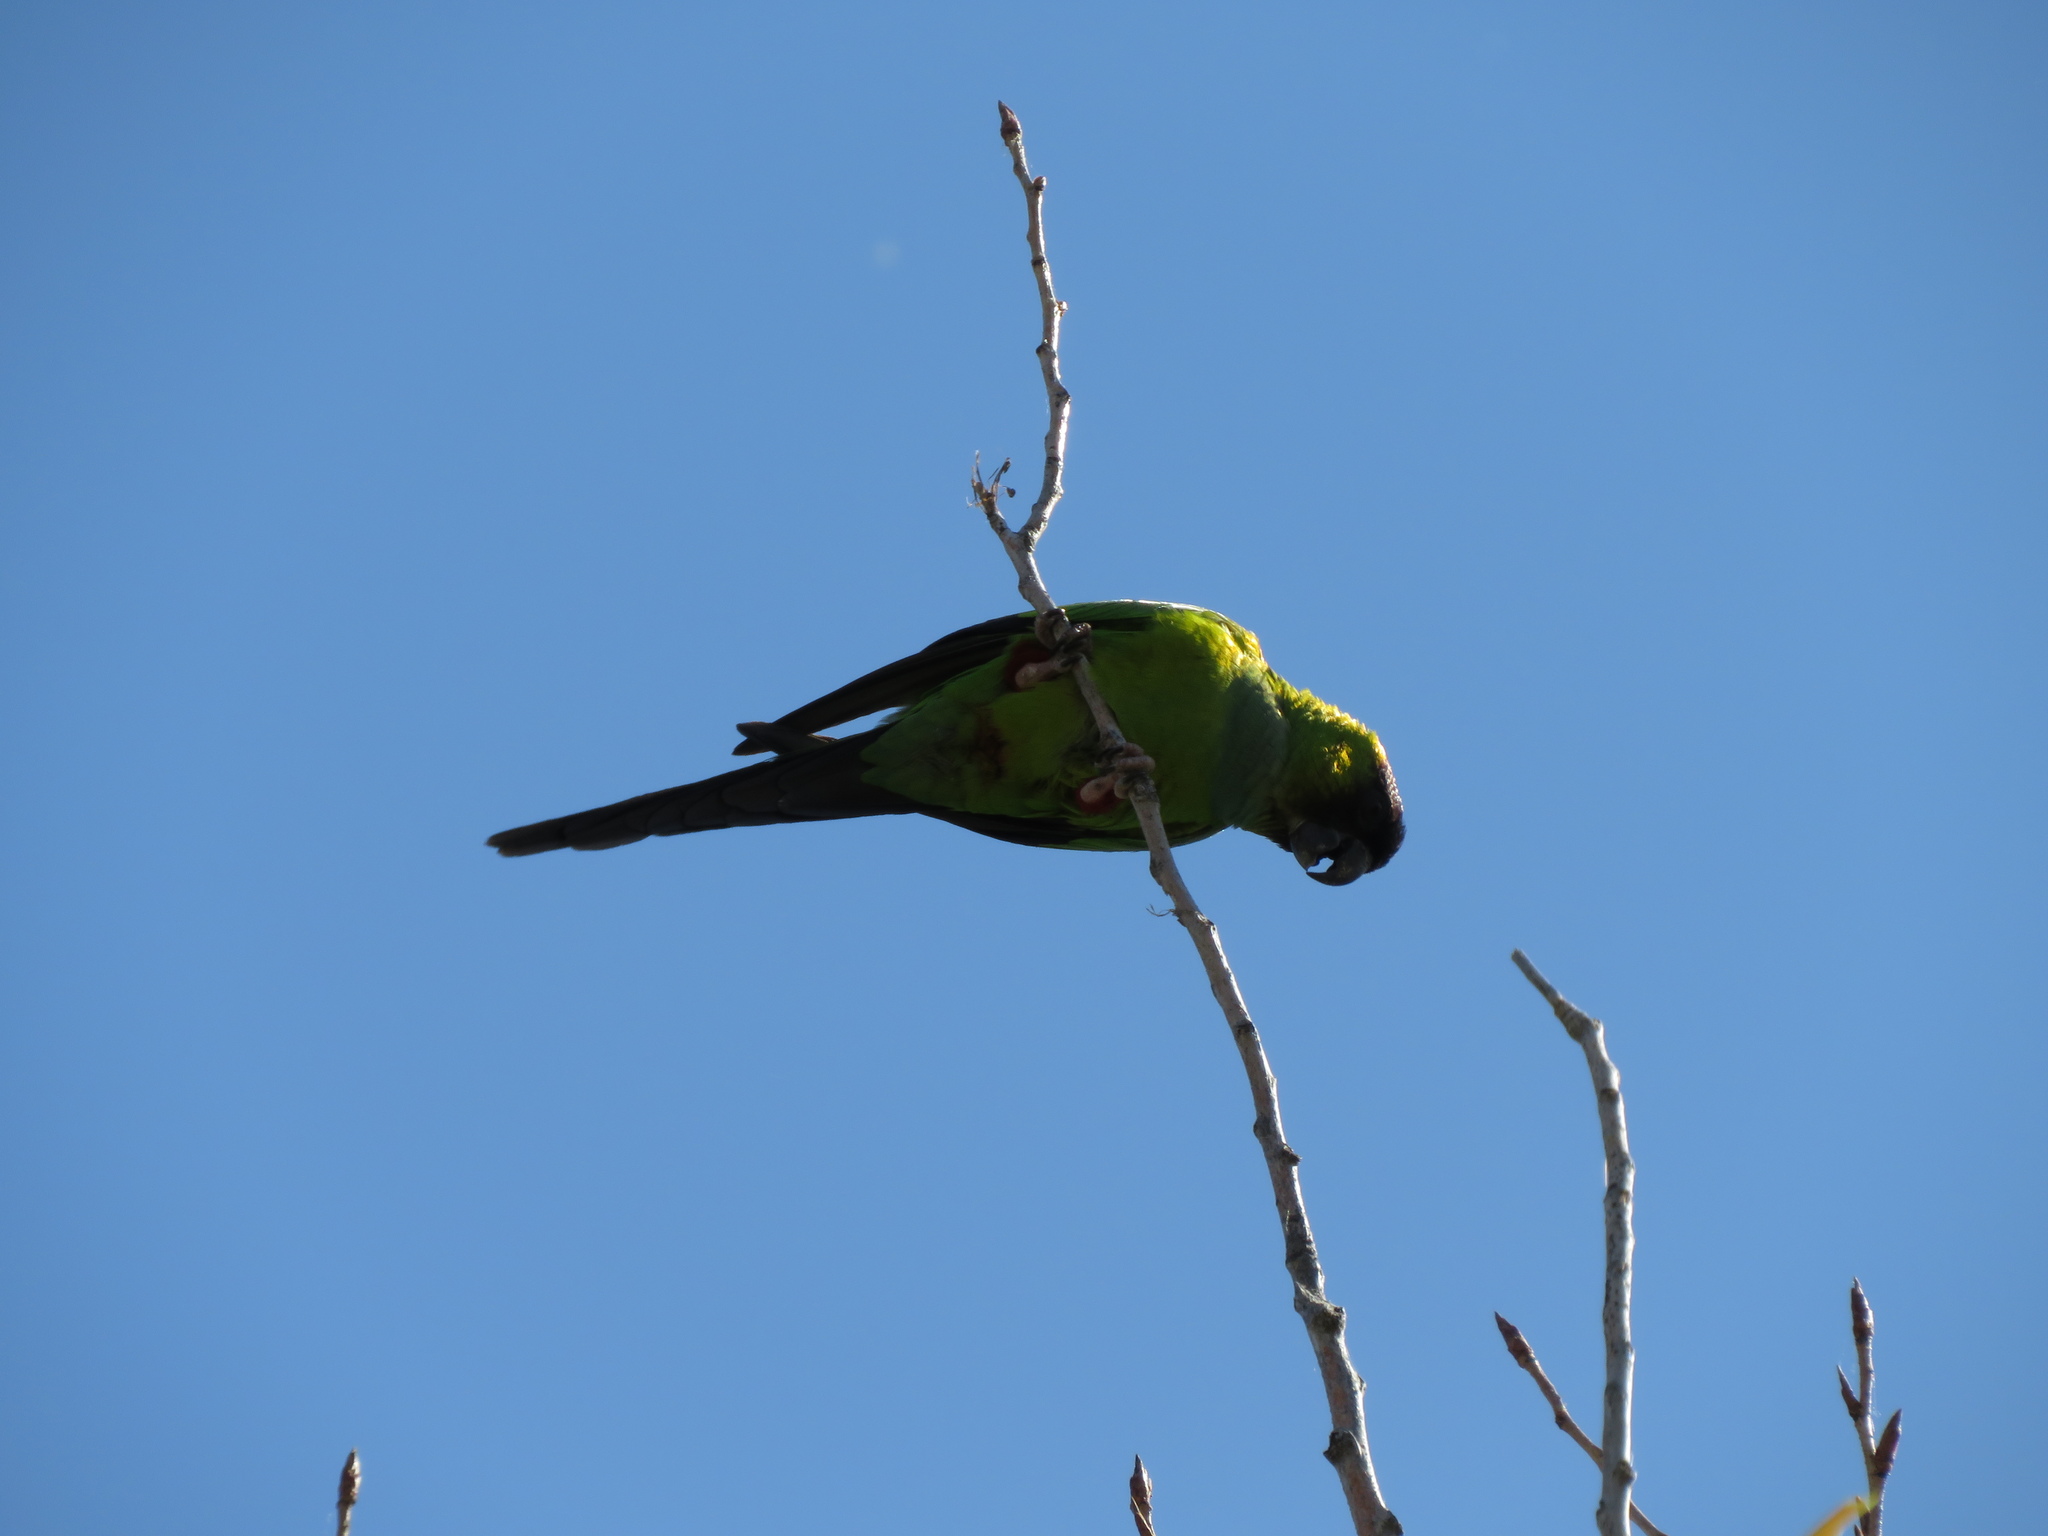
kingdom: Animalia
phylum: Chordata
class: Aves
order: Psittaciformes
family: Psittacidae
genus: Nandayus
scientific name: Nandayus nenday
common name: Nanday parakeet
